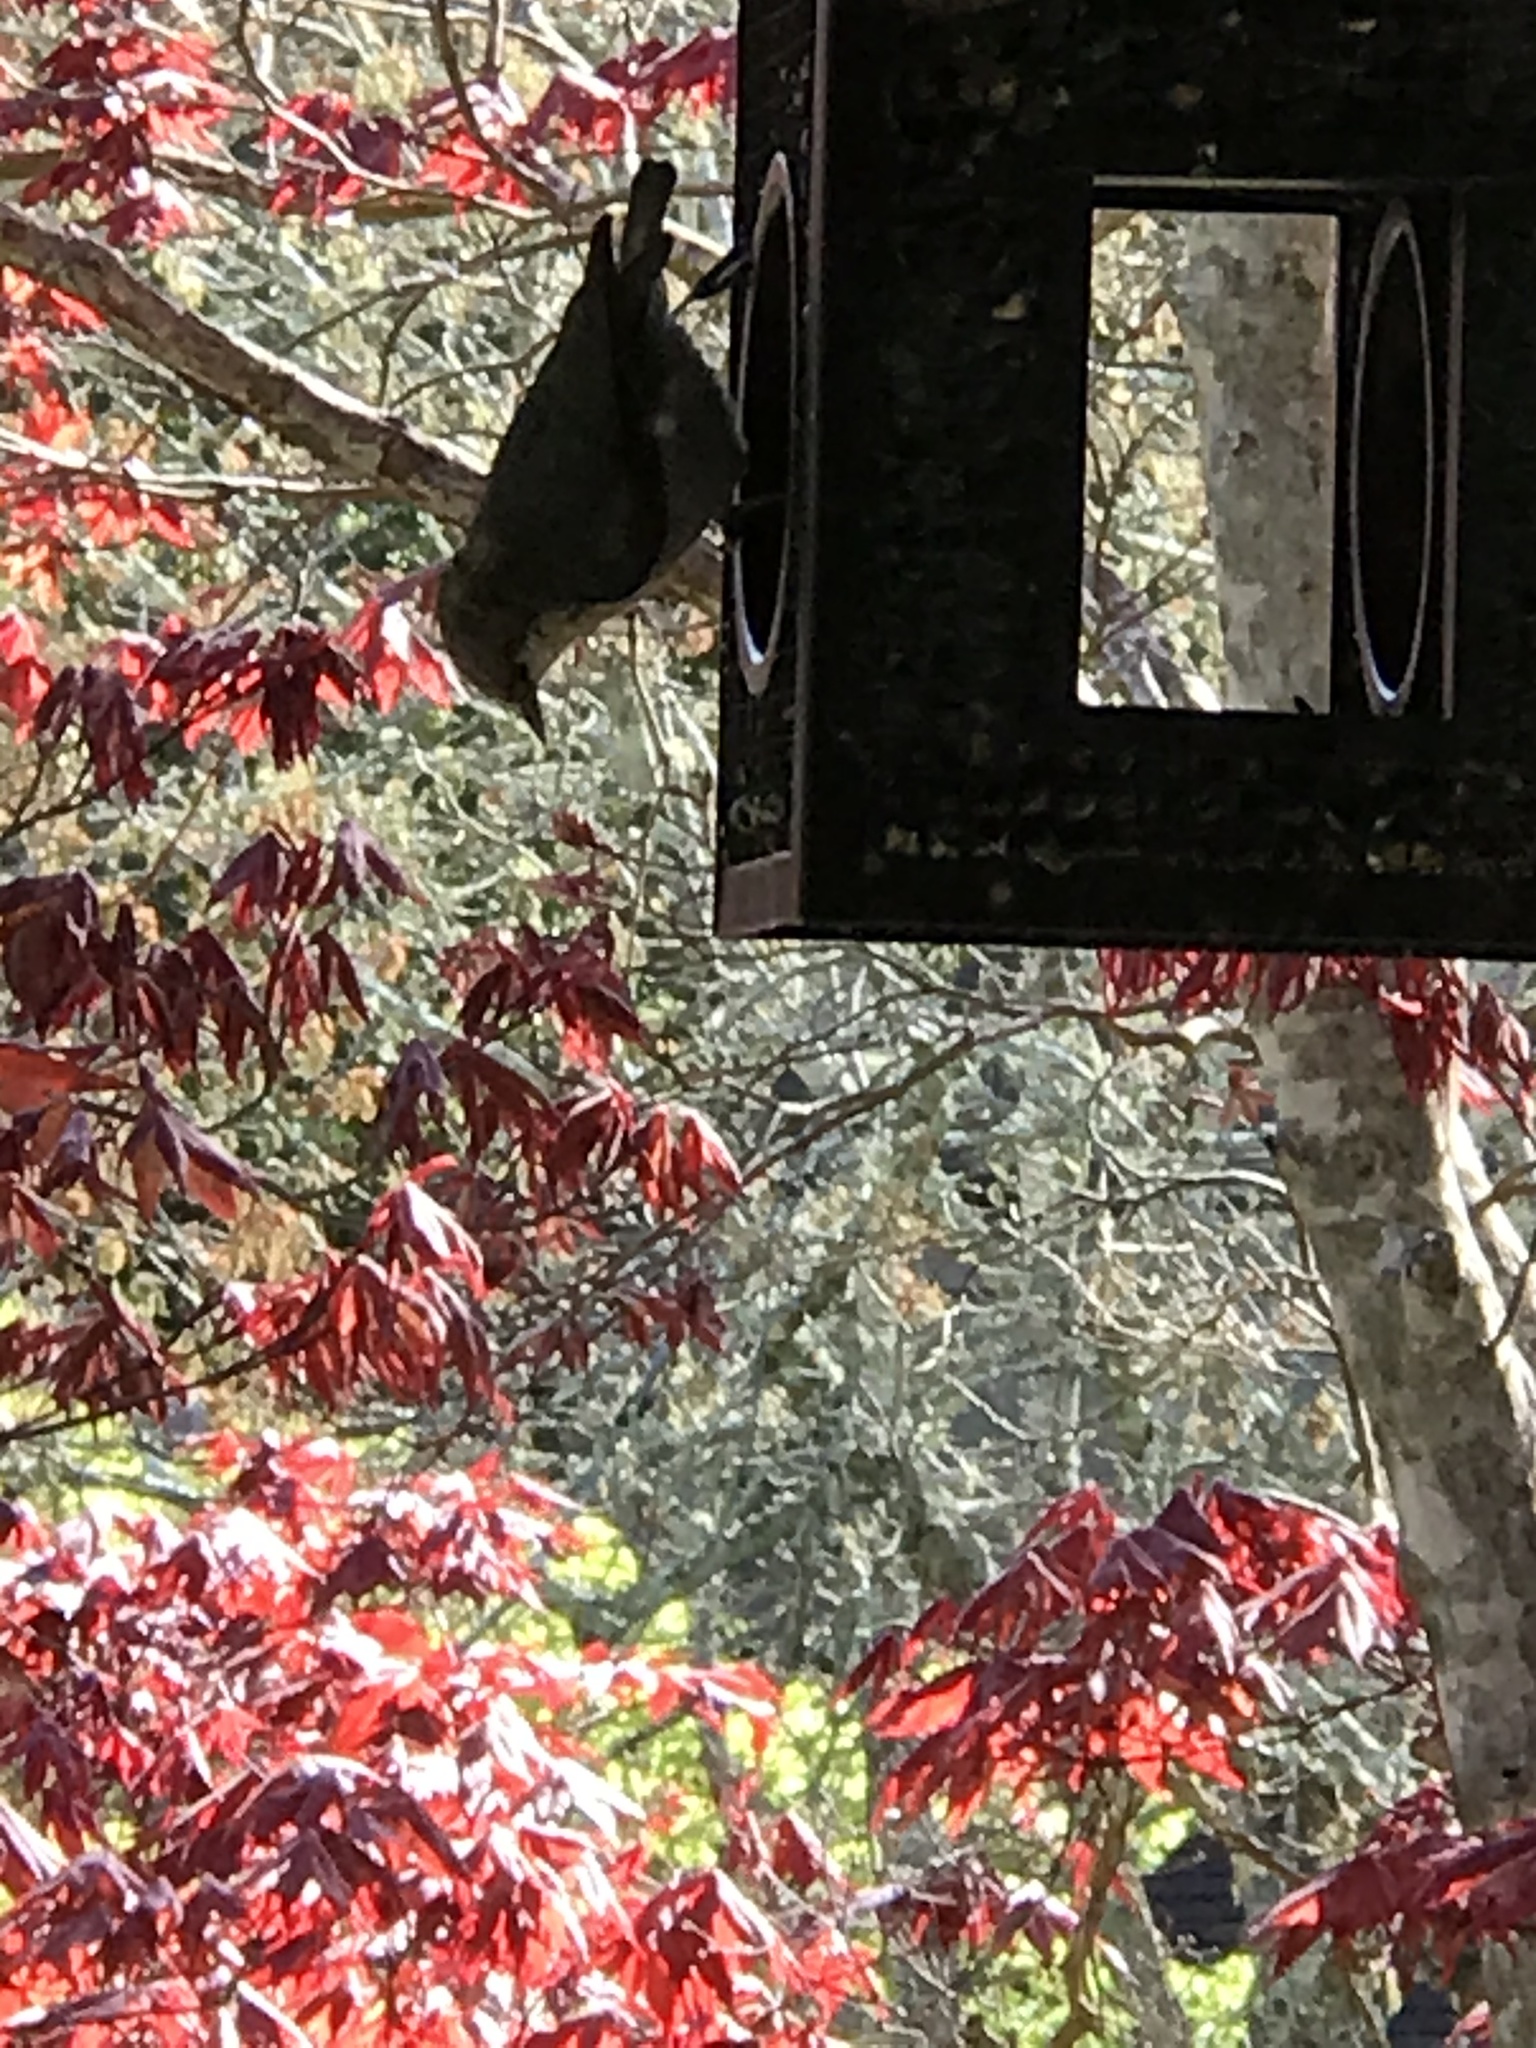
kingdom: Animalia
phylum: Chordata
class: Aves
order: Passeriformes
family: Sittidae
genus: Sitta
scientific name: Sitta pygmaea
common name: Pygmy nuthatch
